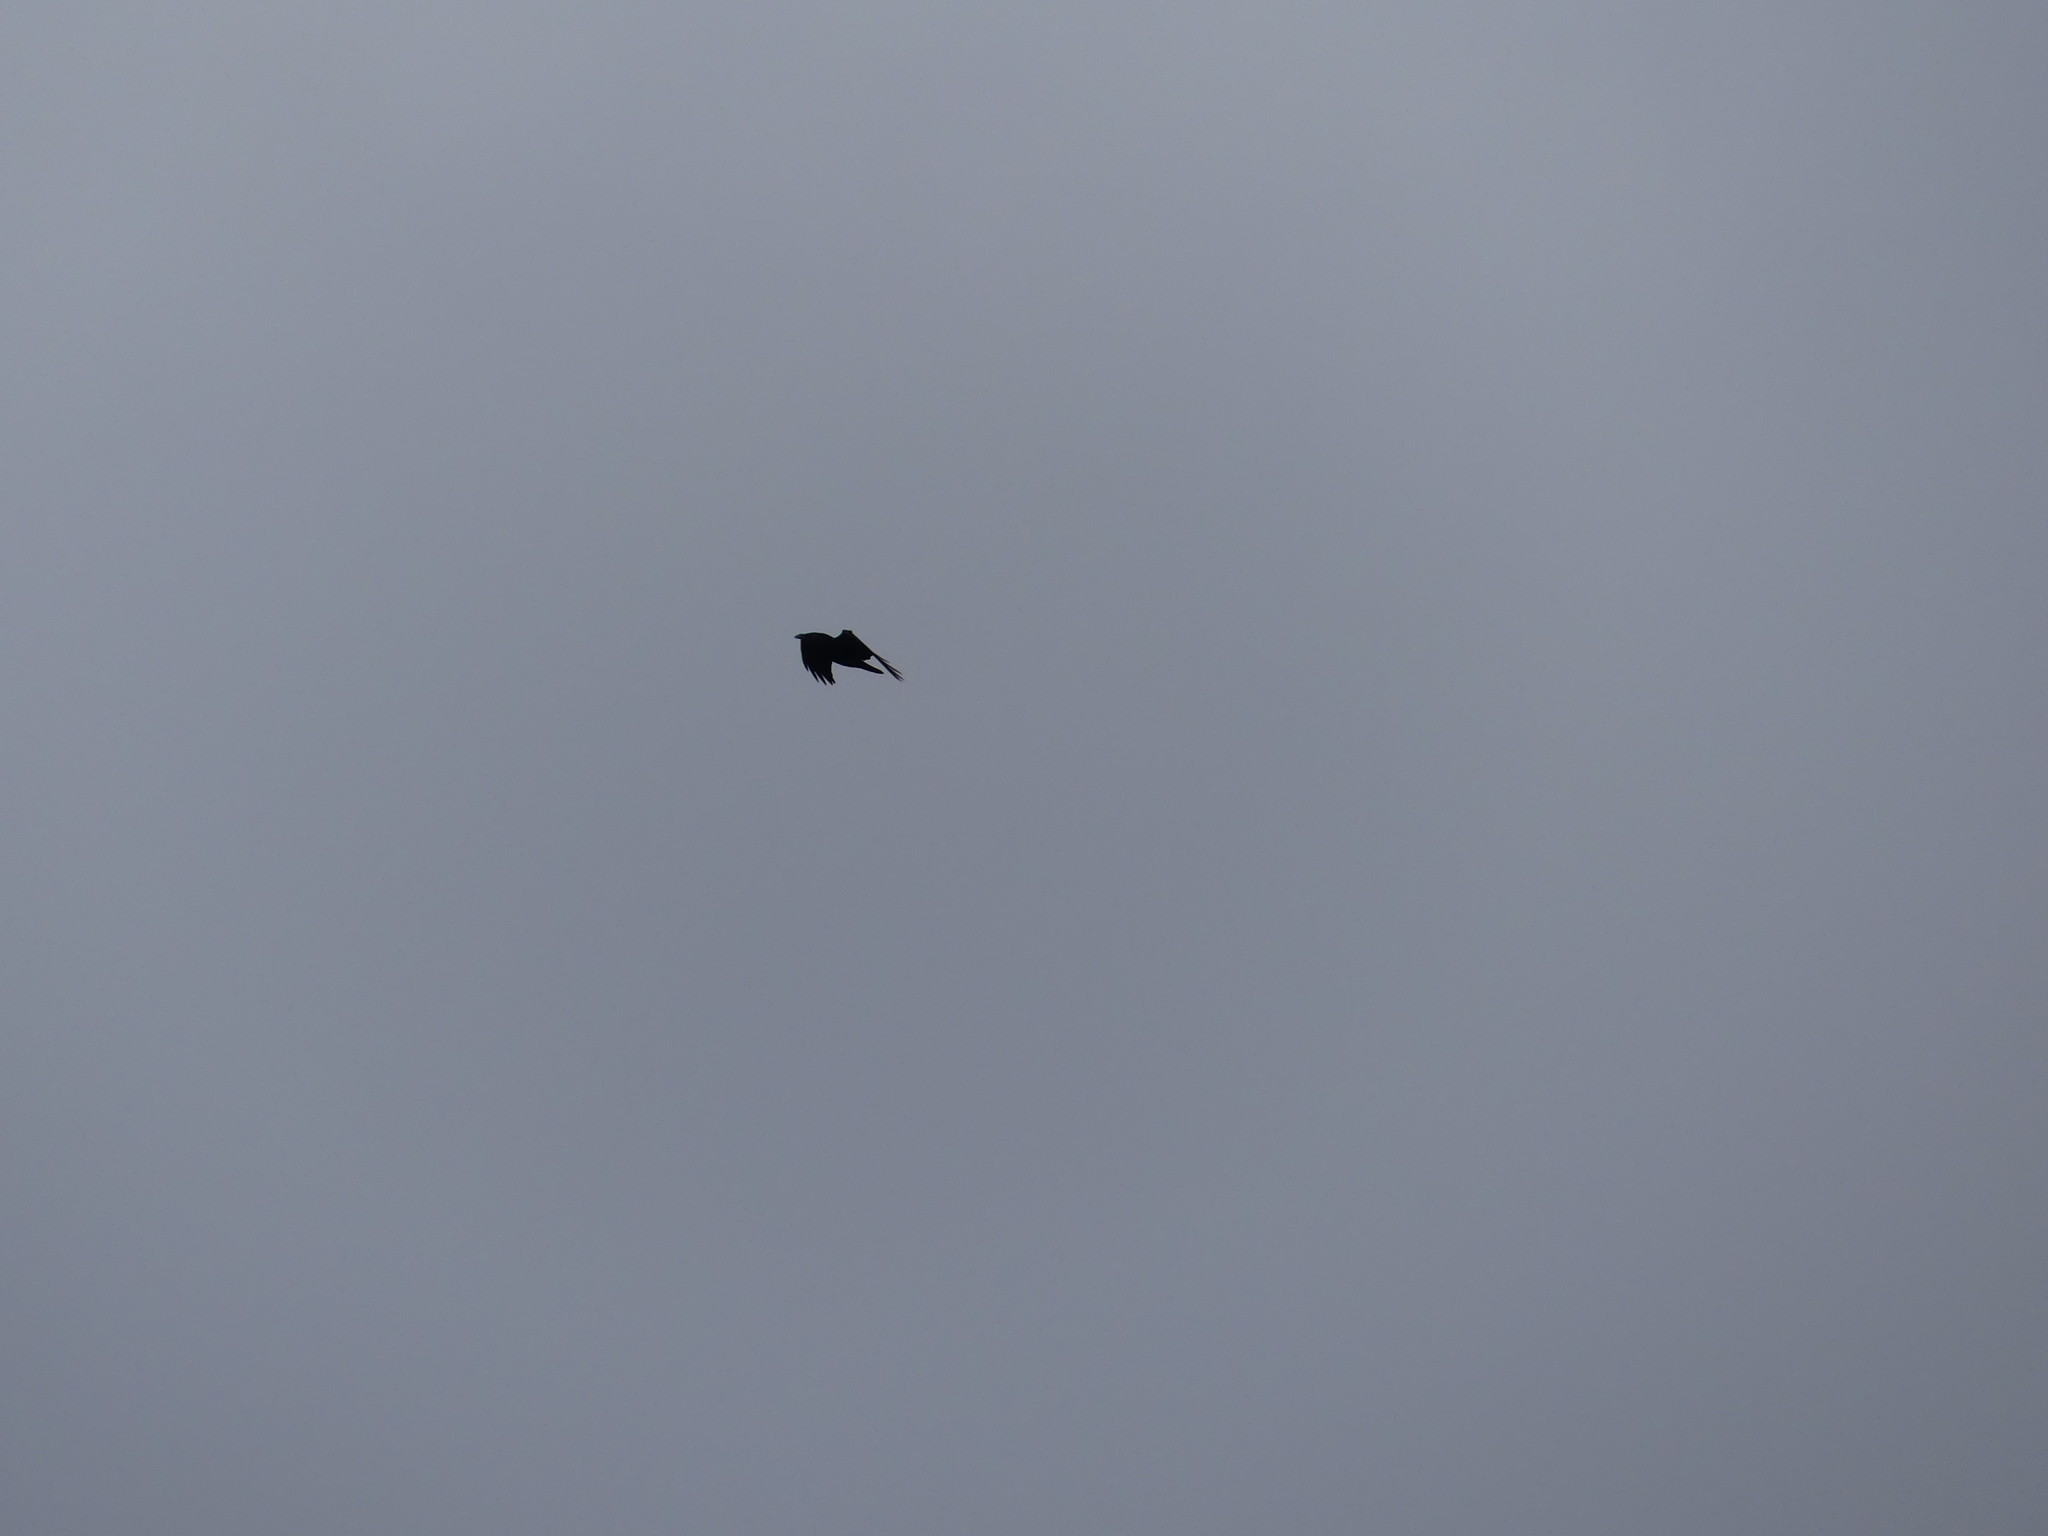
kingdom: Animalia
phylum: Chordata
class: Aves
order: Passeriformes
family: Corvidae
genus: Corvus
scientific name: Corvus corax
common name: Common raven
